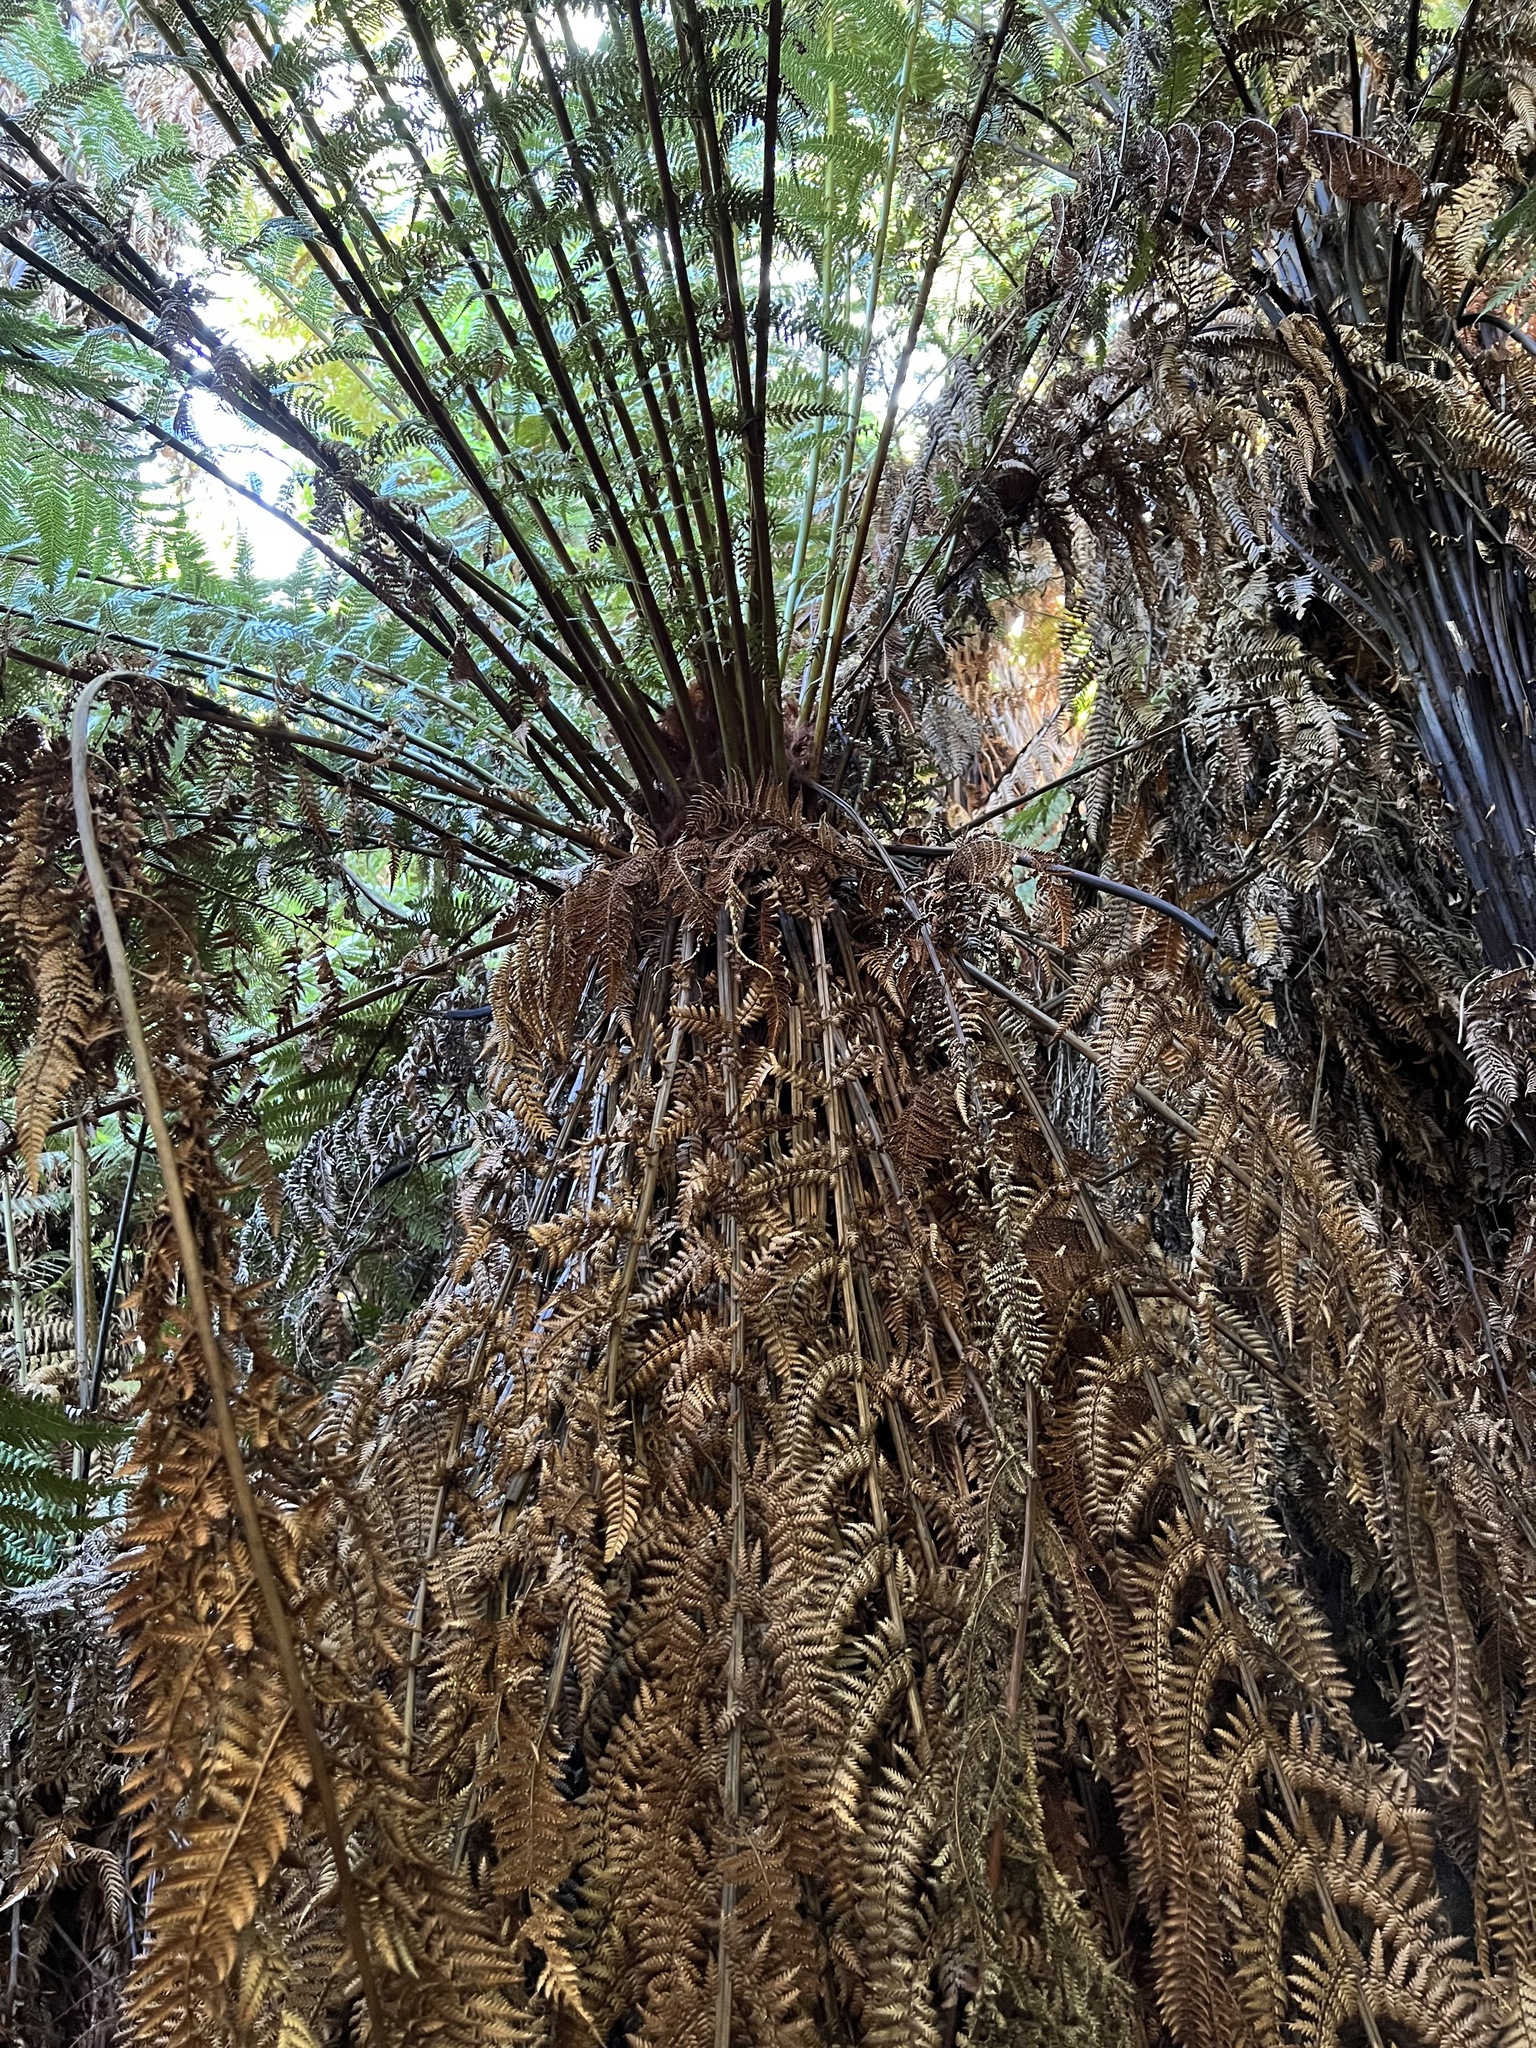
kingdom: Plantae
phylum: Tracheophyta
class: Polypodiopsida
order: Cyatheales
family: Dicksoniaceae
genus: Dicksonia
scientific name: Dicksonia fibrosa
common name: Golden tree fern
